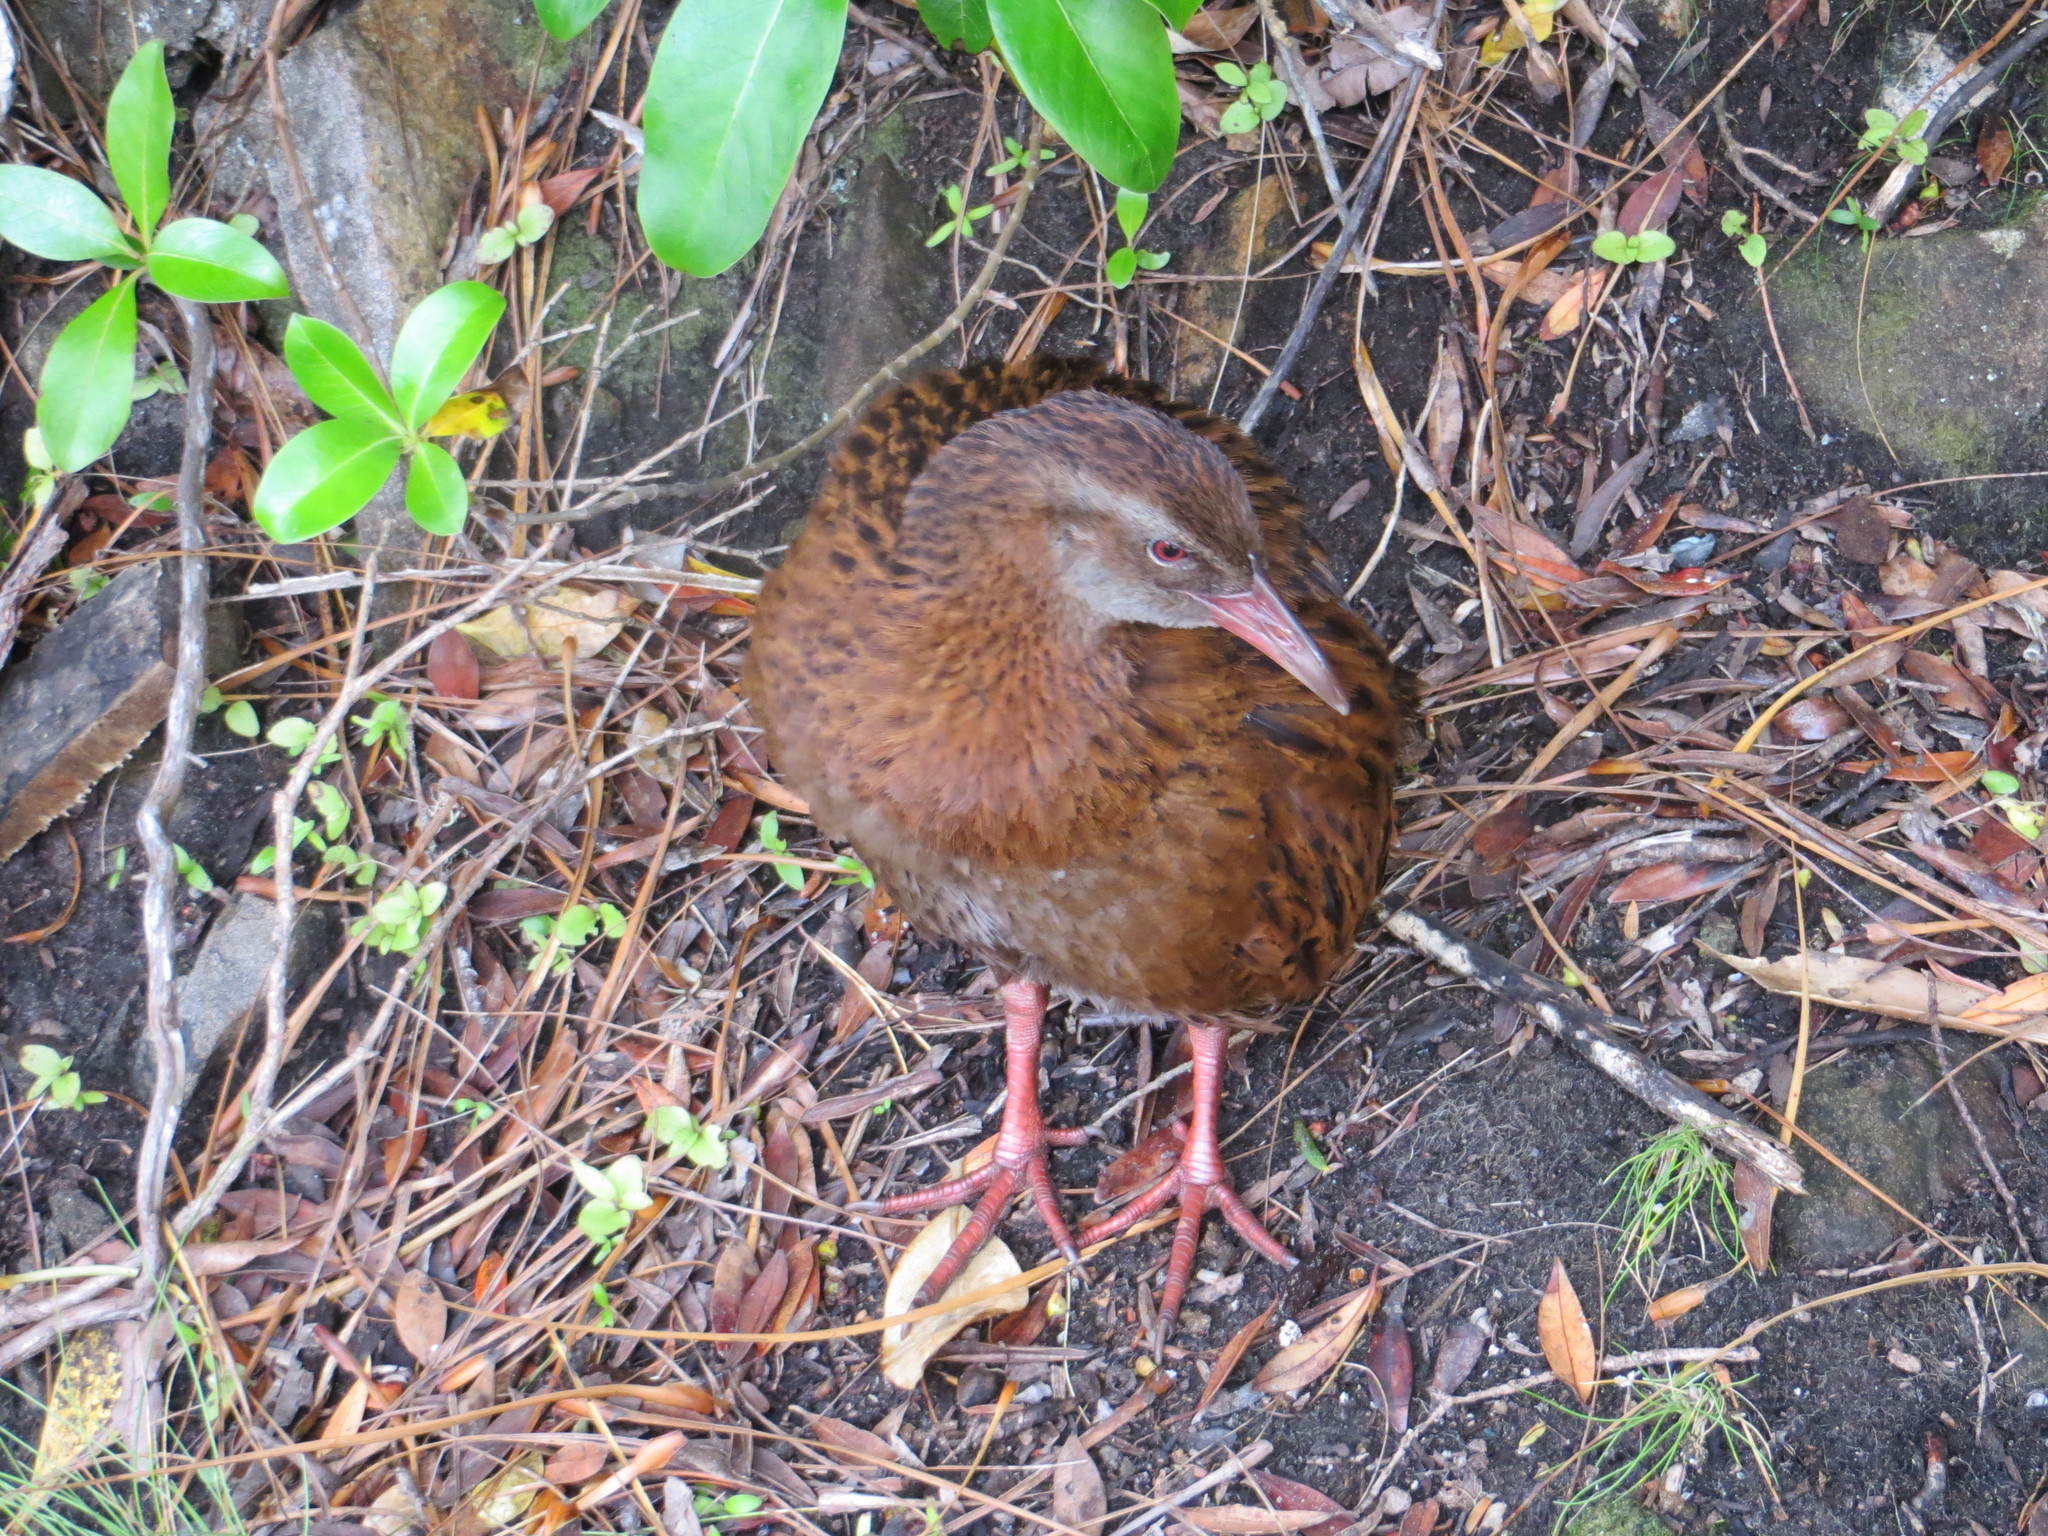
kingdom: Animalia
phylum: Chordata
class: Aves
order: Gruiformes
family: Rallidae
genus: Gallirallus
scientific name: Gallirallus australis
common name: Weka
